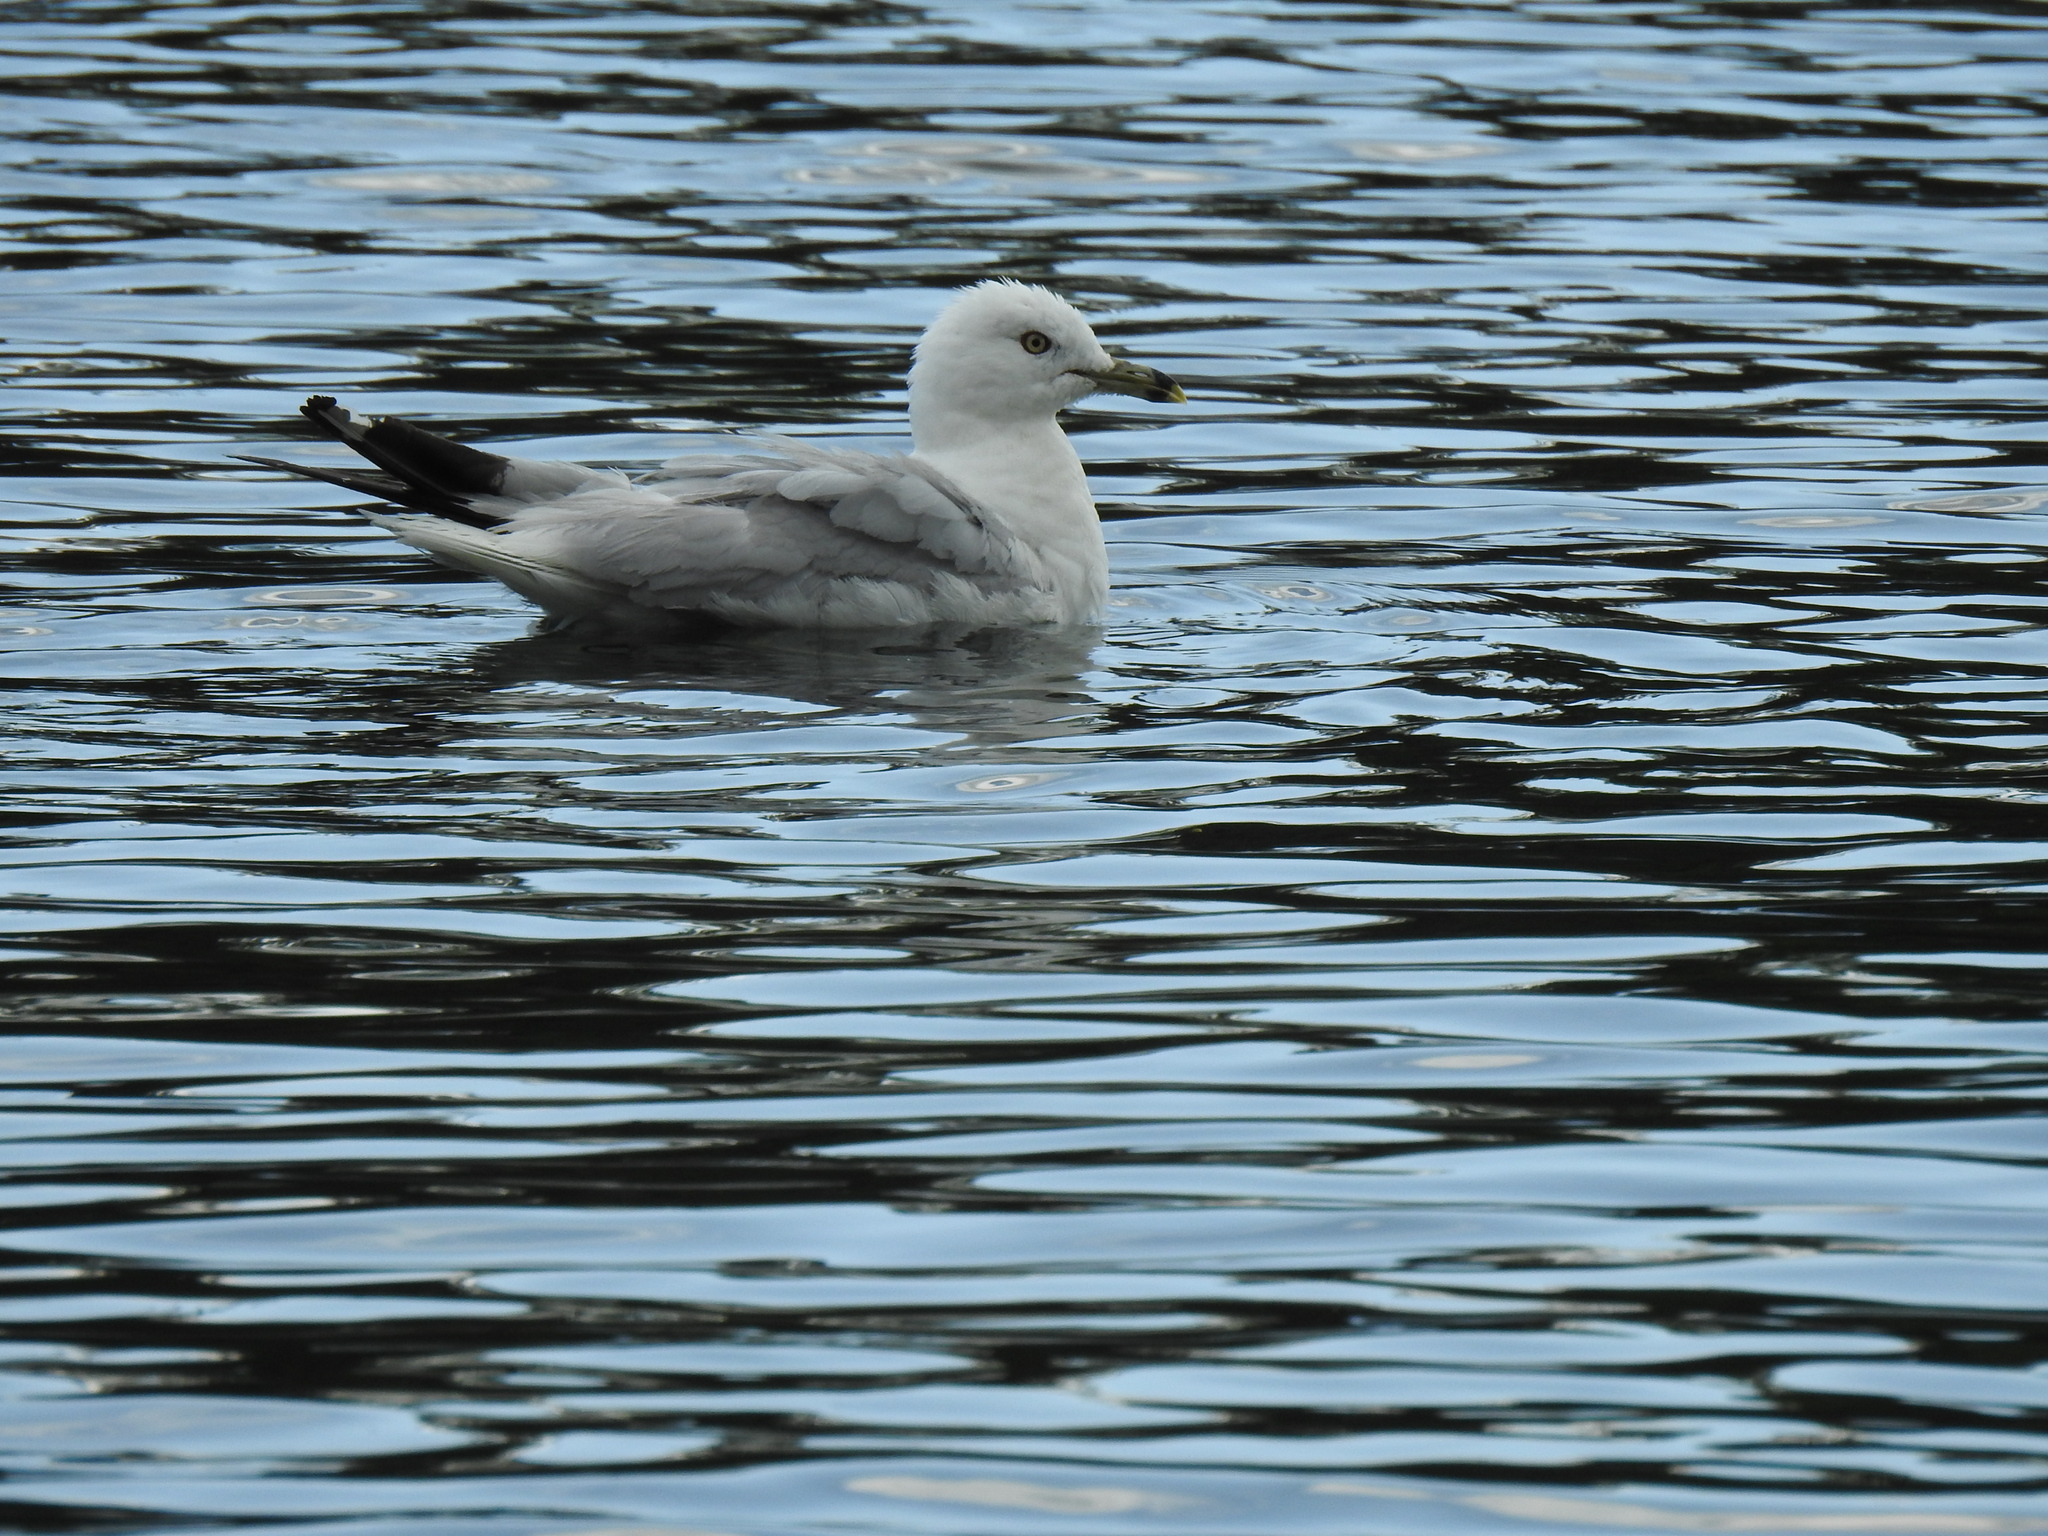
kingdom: Animalia
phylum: Chordata
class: Aves
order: Charadriiformes
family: Laridae
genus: Larus
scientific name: Larus delawarensis
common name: Ring-billed gull
